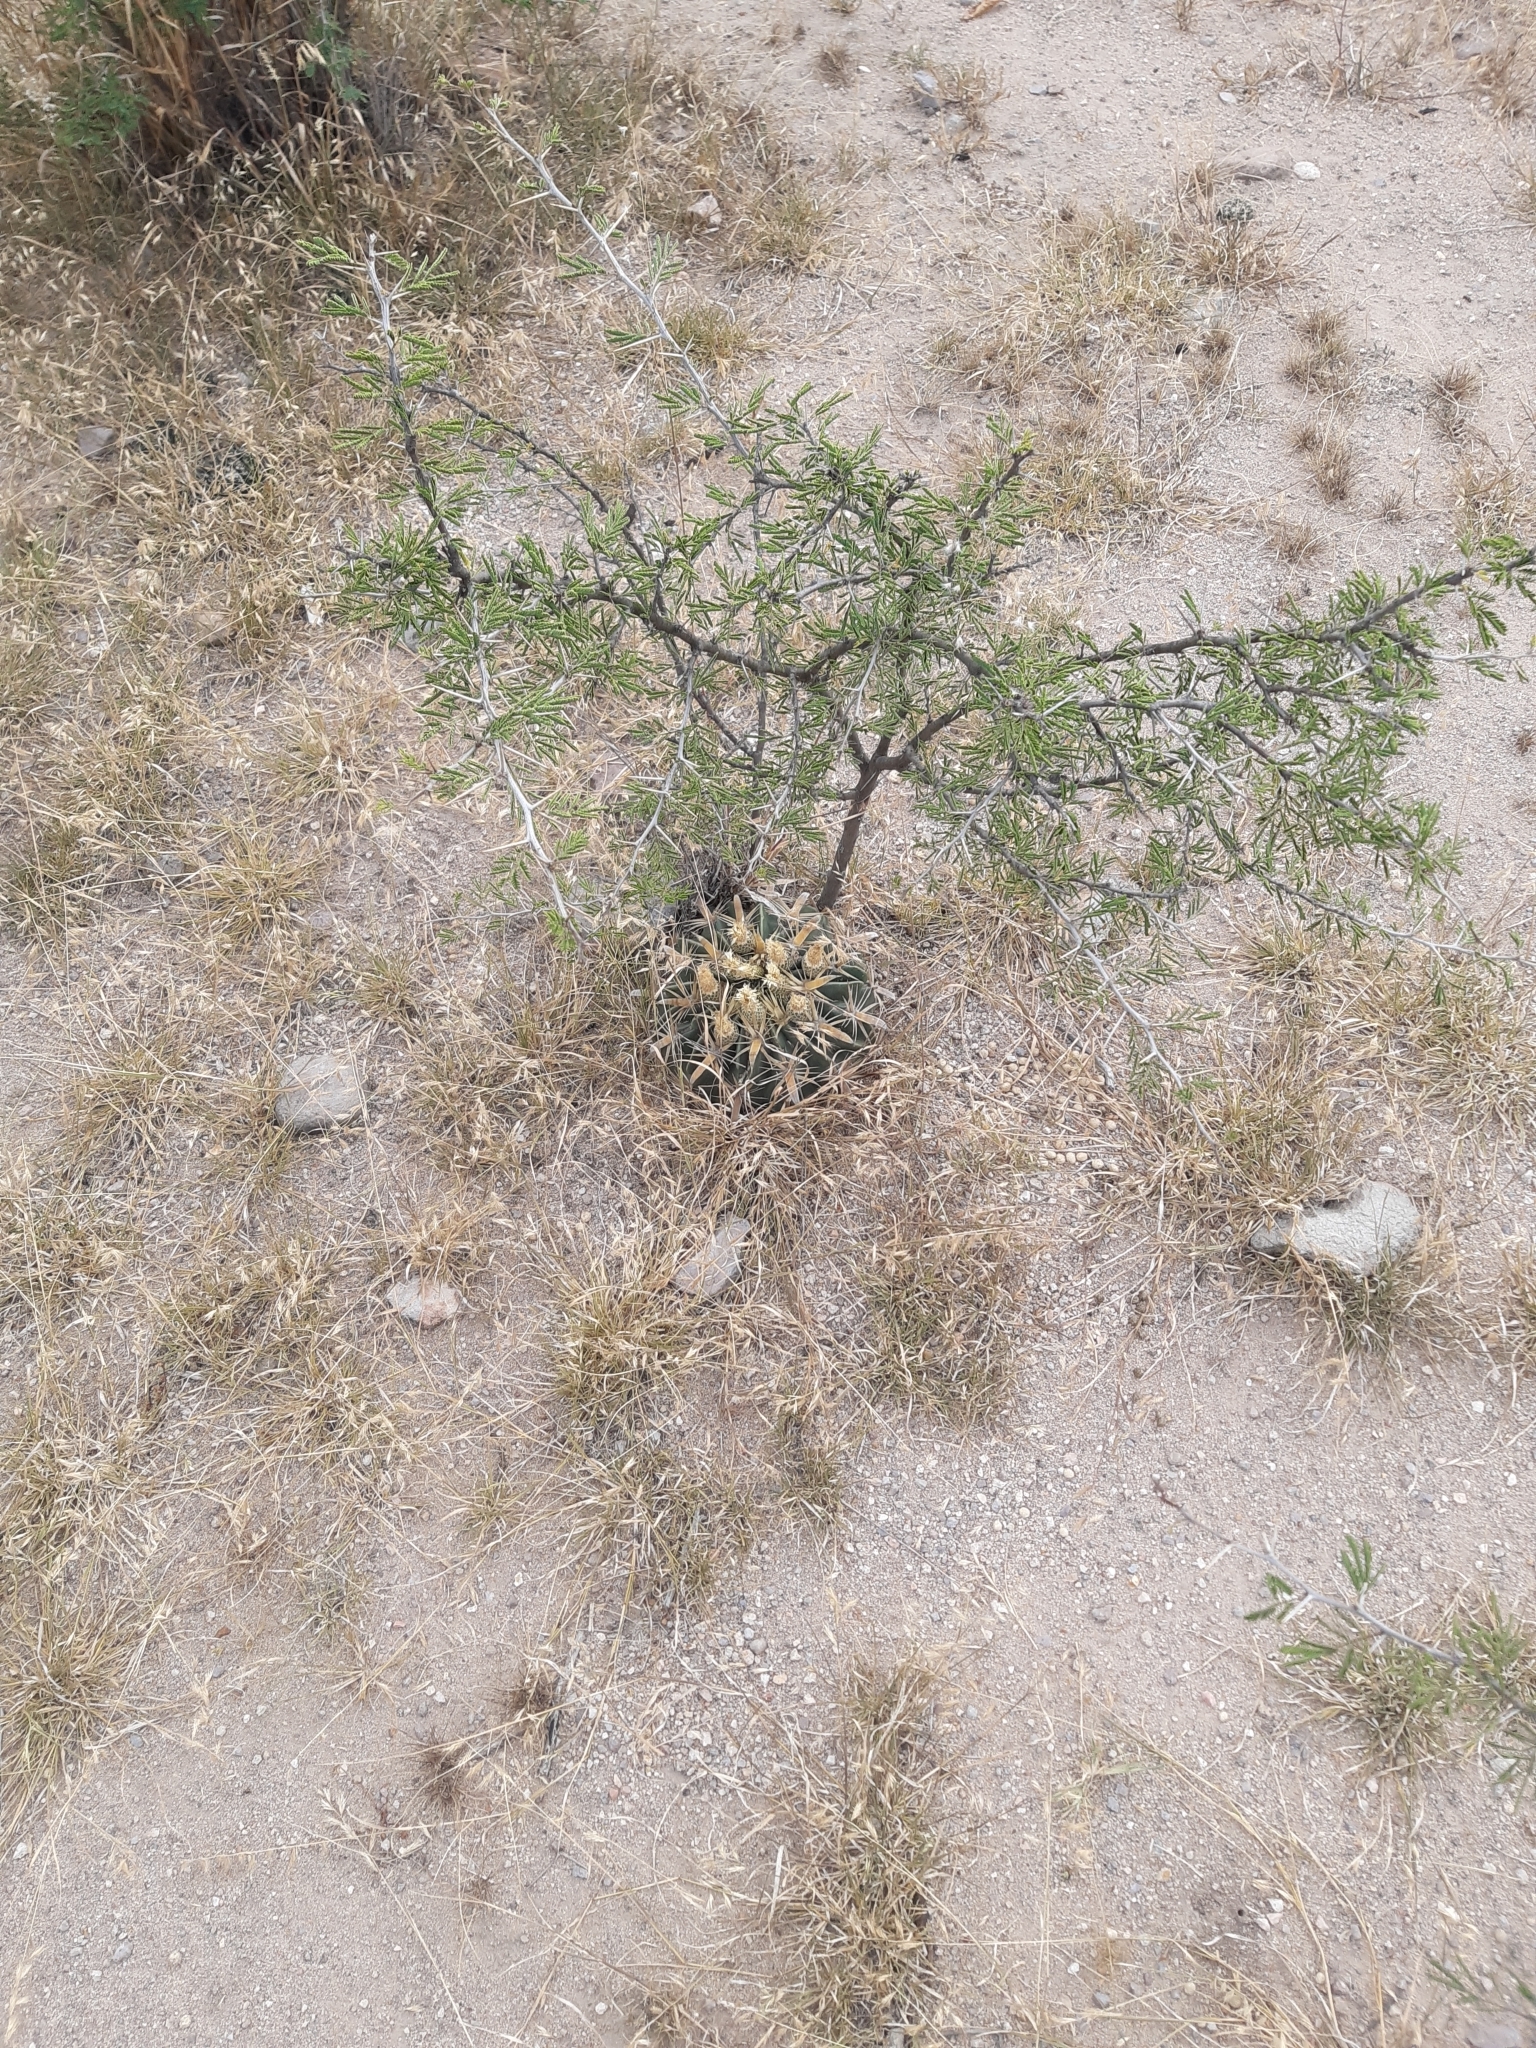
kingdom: Plantae
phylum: Tracheophyta
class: Magnoliopsida
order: Caryophyllales
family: Cactaceae
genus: Ferocactus
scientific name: Ferocactus latispinus
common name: Devil's-tongue cactus
